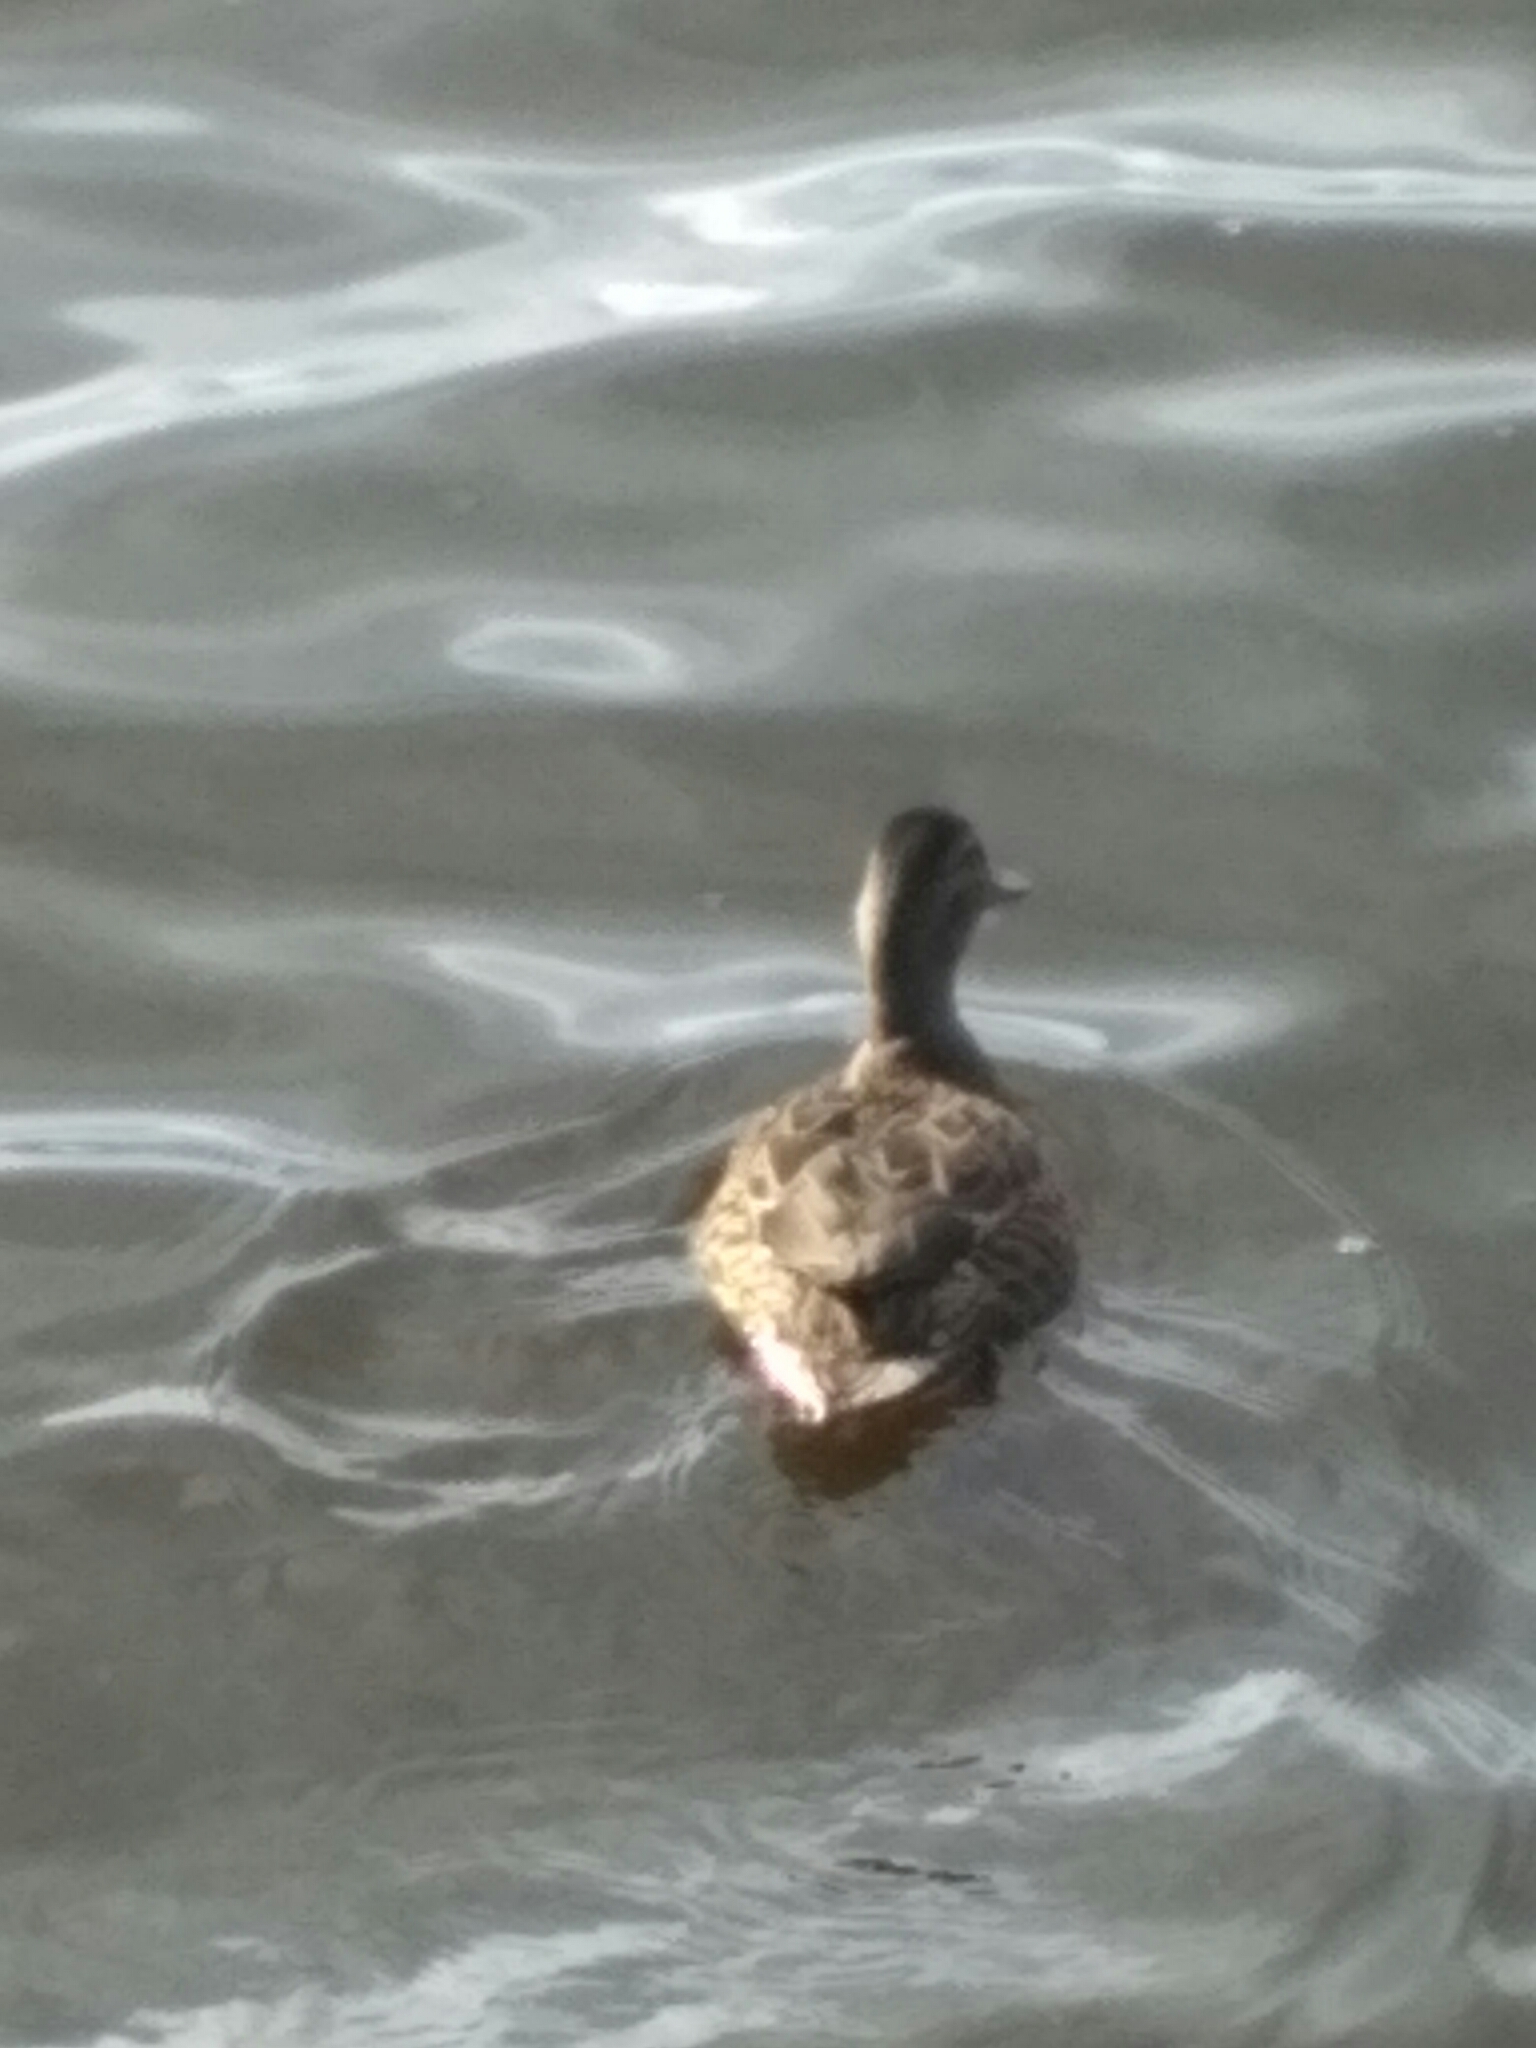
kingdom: Animalia
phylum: Chordata
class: Aves
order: Anseriformes
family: Anatidae
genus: Anas
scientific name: Anas platyrhynchos
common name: Mallard
